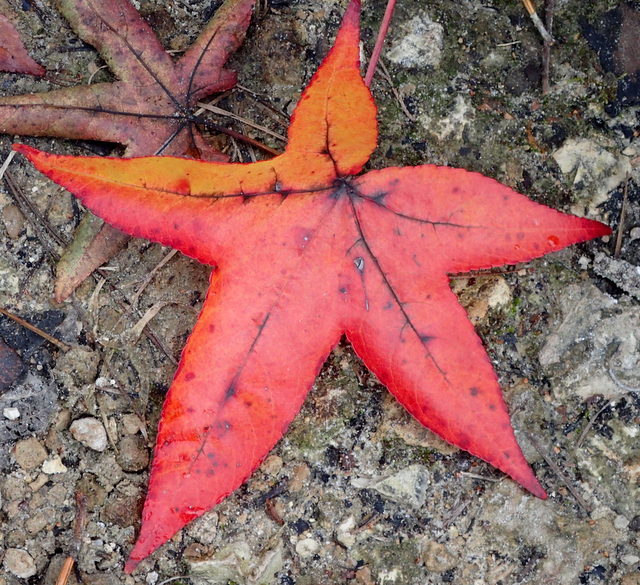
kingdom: Plantae
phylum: Tracheophyta
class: Magnoliopsida
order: Saxifragales
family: Altingiaceae
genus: Liquidambar
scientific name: Liquidambar styraciflua
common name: Sweet gum
